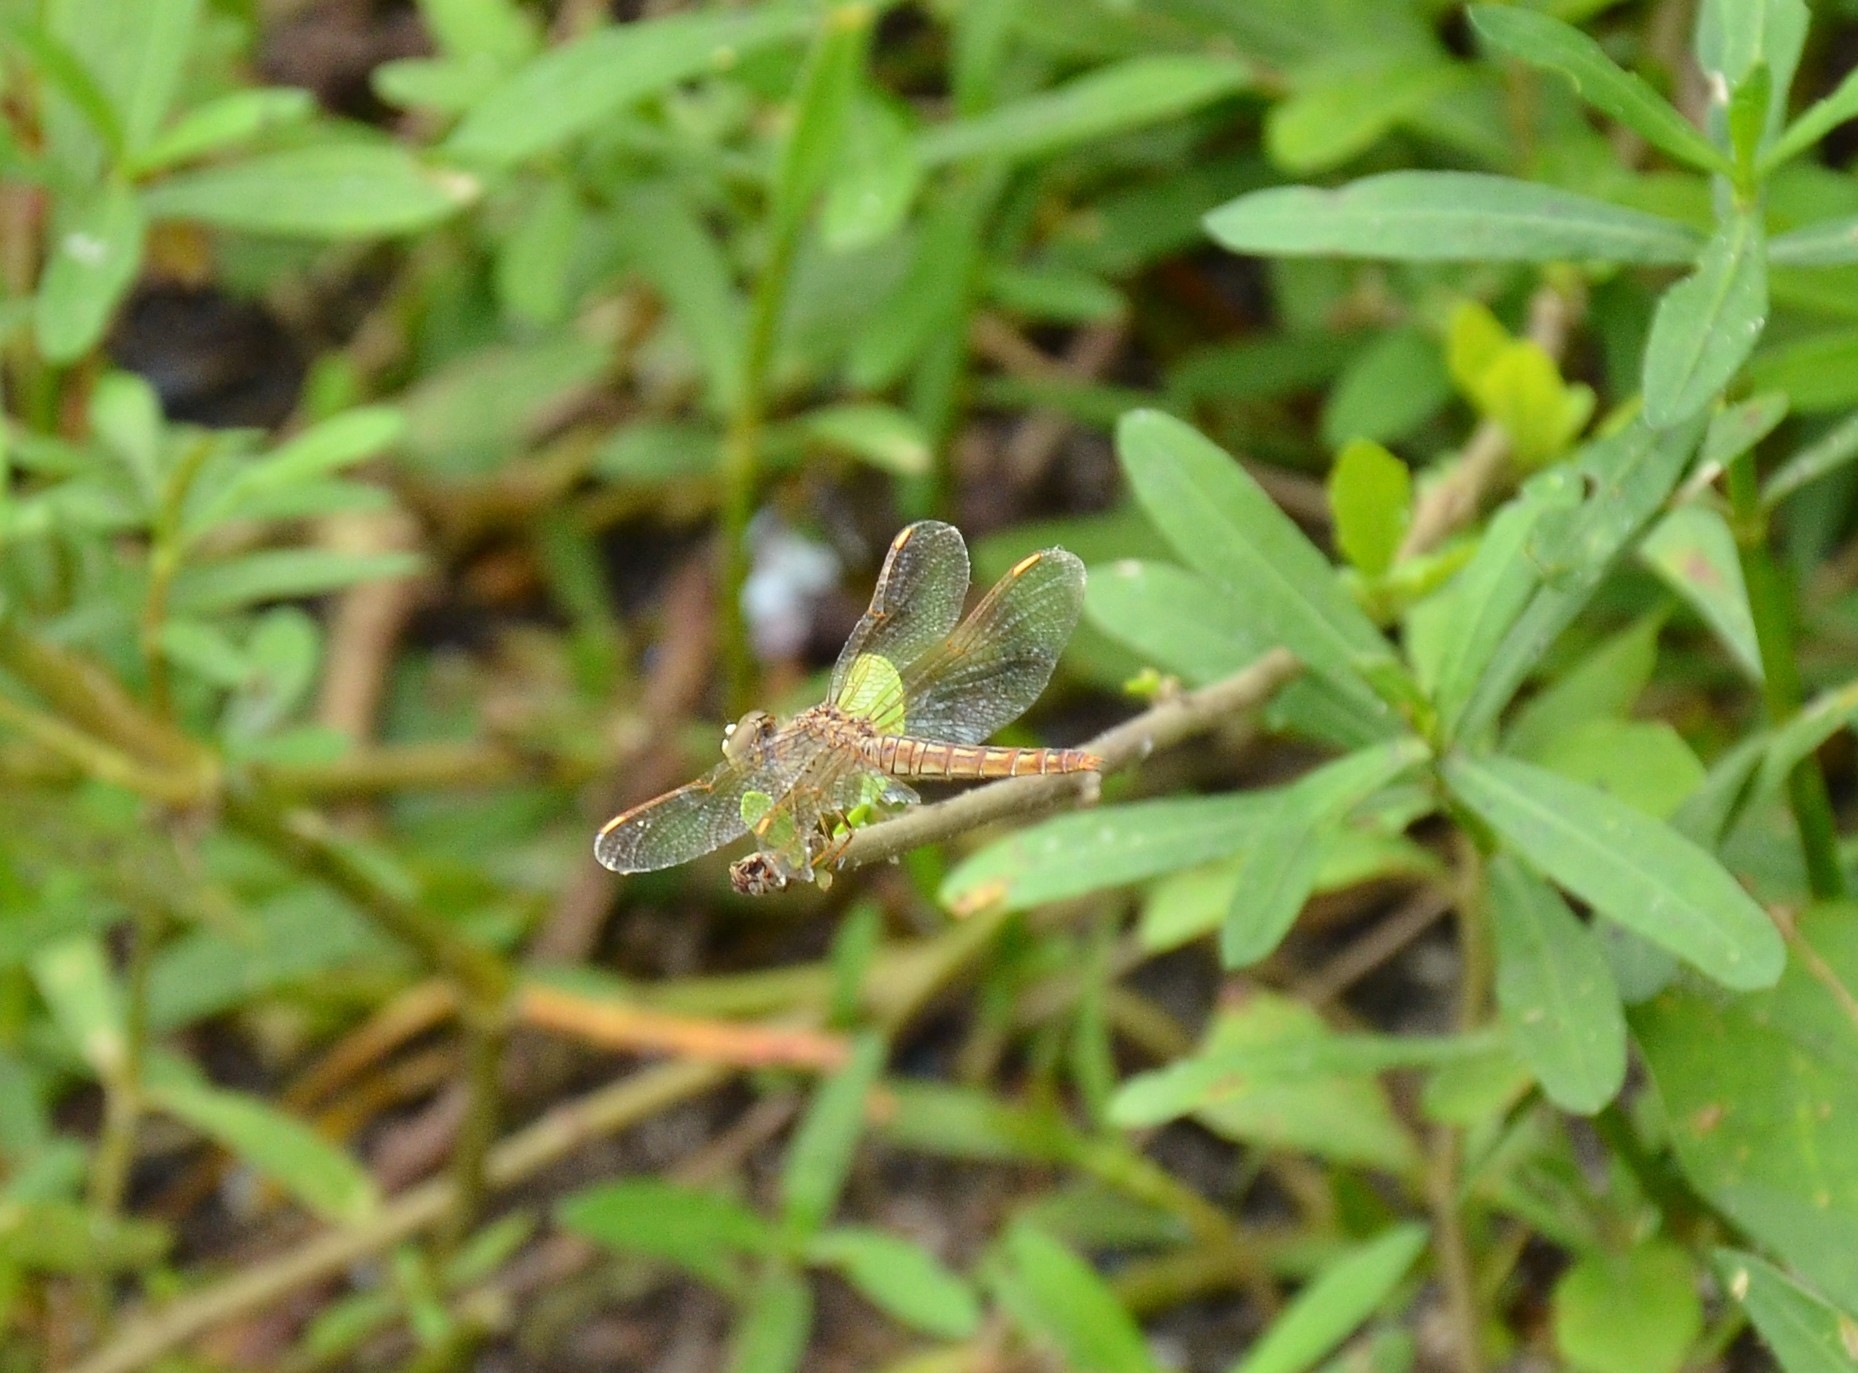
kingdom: Animalia
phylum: Arthropoda
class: Insecta
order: Odonata
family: Libellulidae
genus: Brachythemis
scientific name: Brachythemis contaminata
